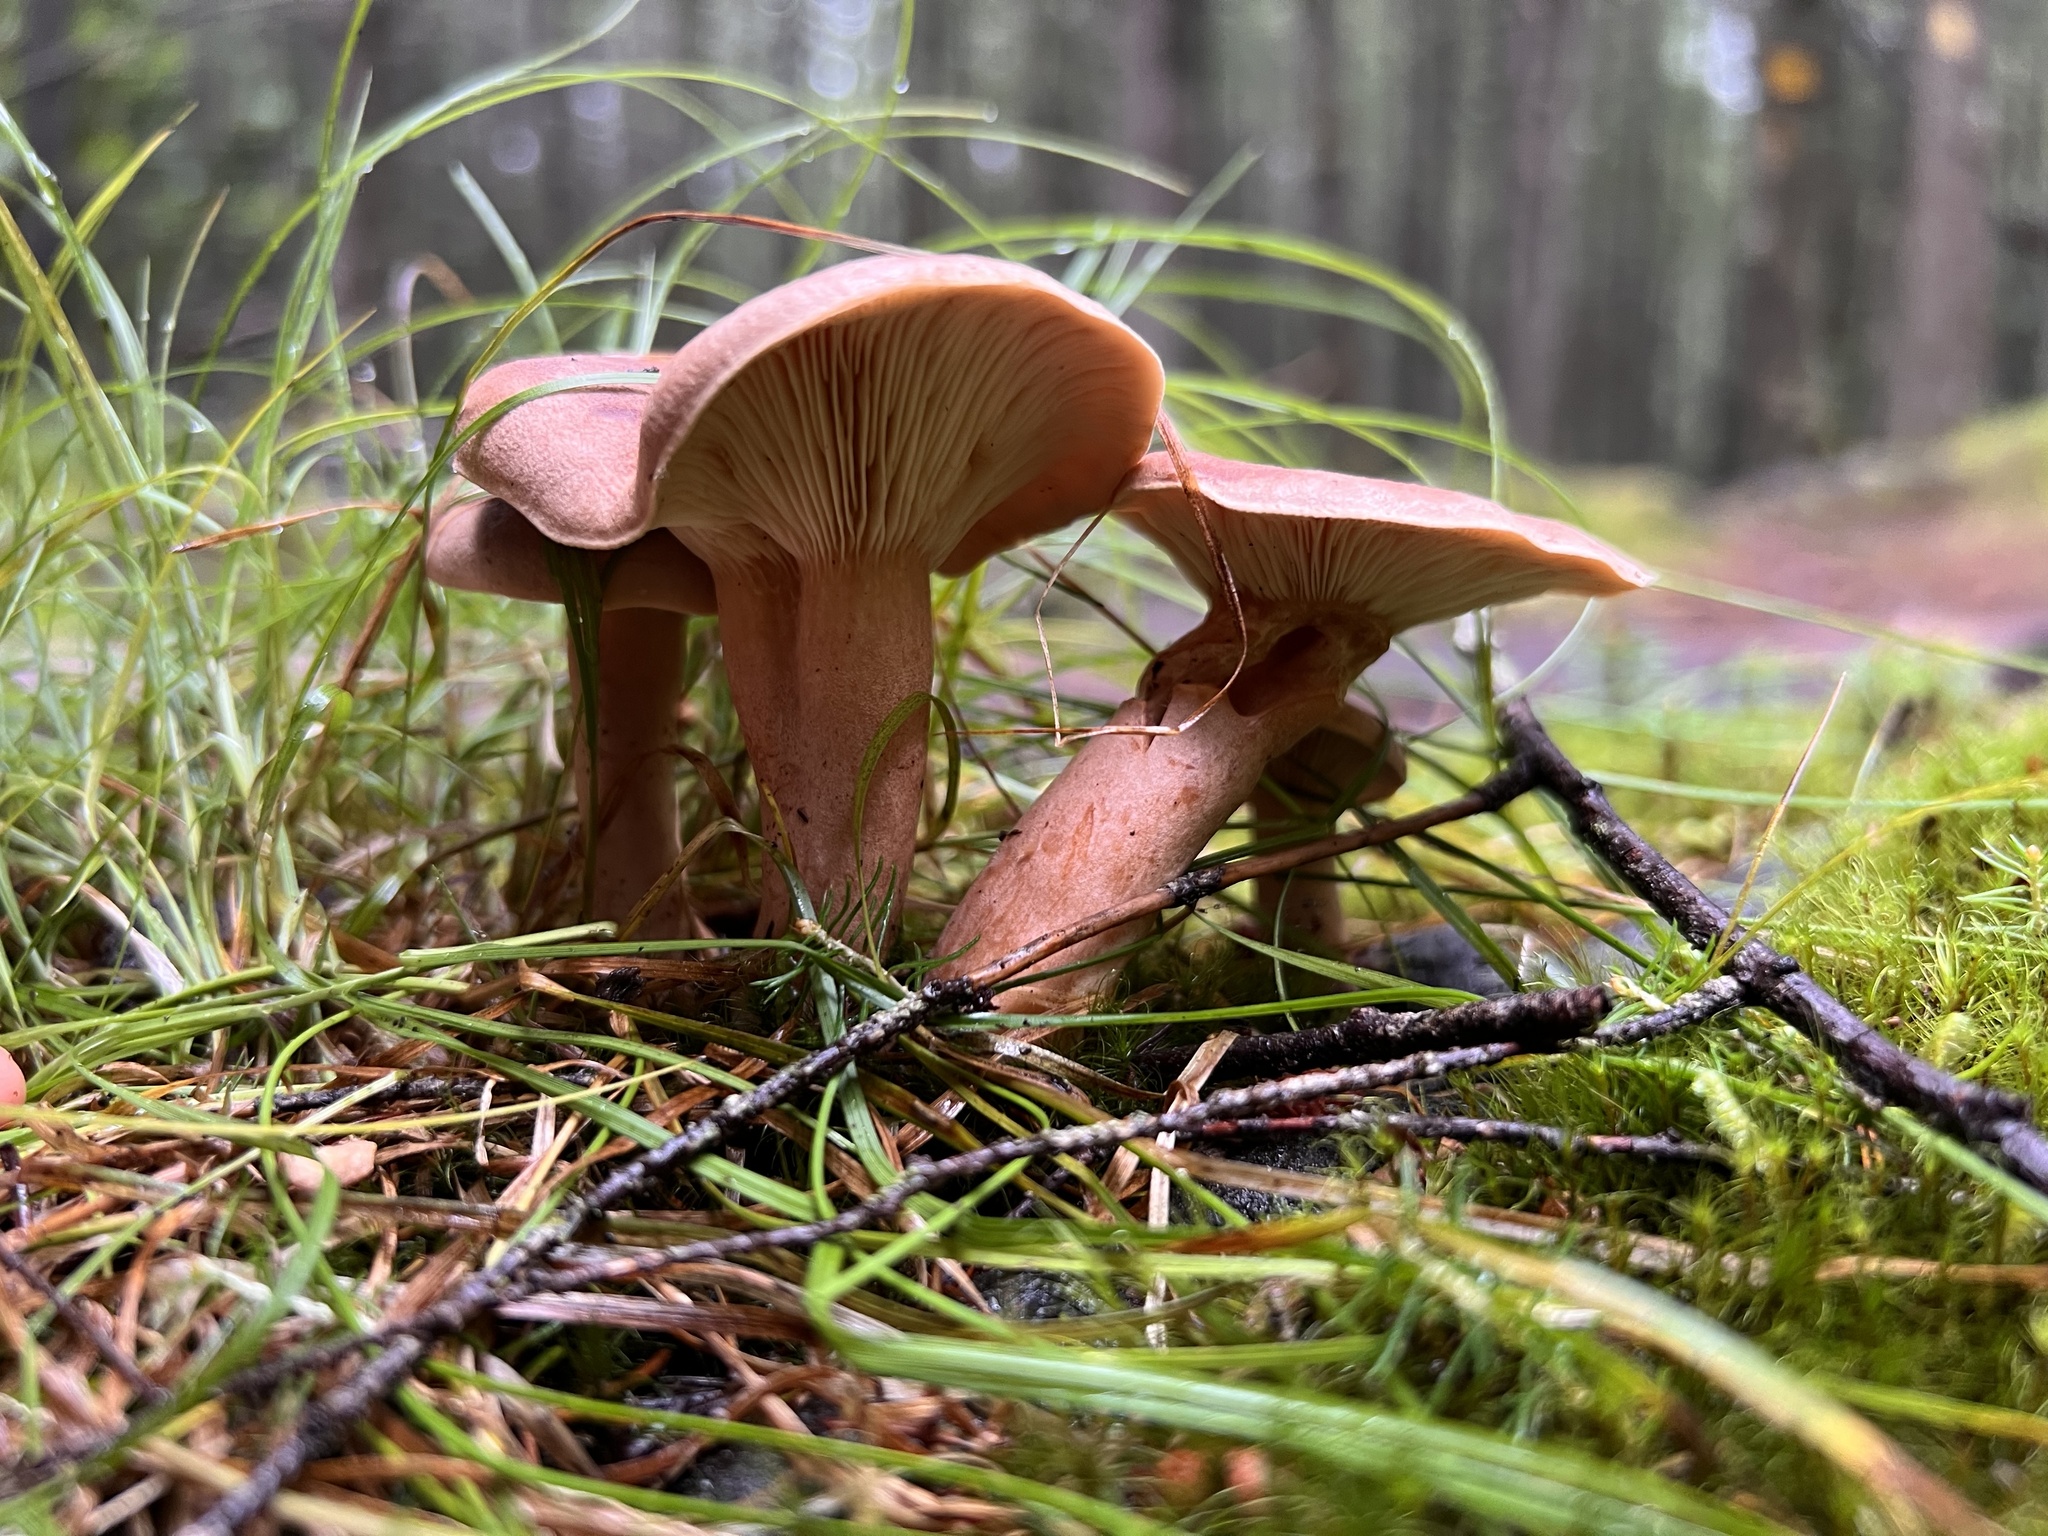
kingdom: Fungi
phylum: Basidiomycota
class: Agaricomycetes
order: Russulales
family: Russulaceae
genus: Lactarius
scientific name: Lactarius helvus
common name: Fenugreek milkcap
